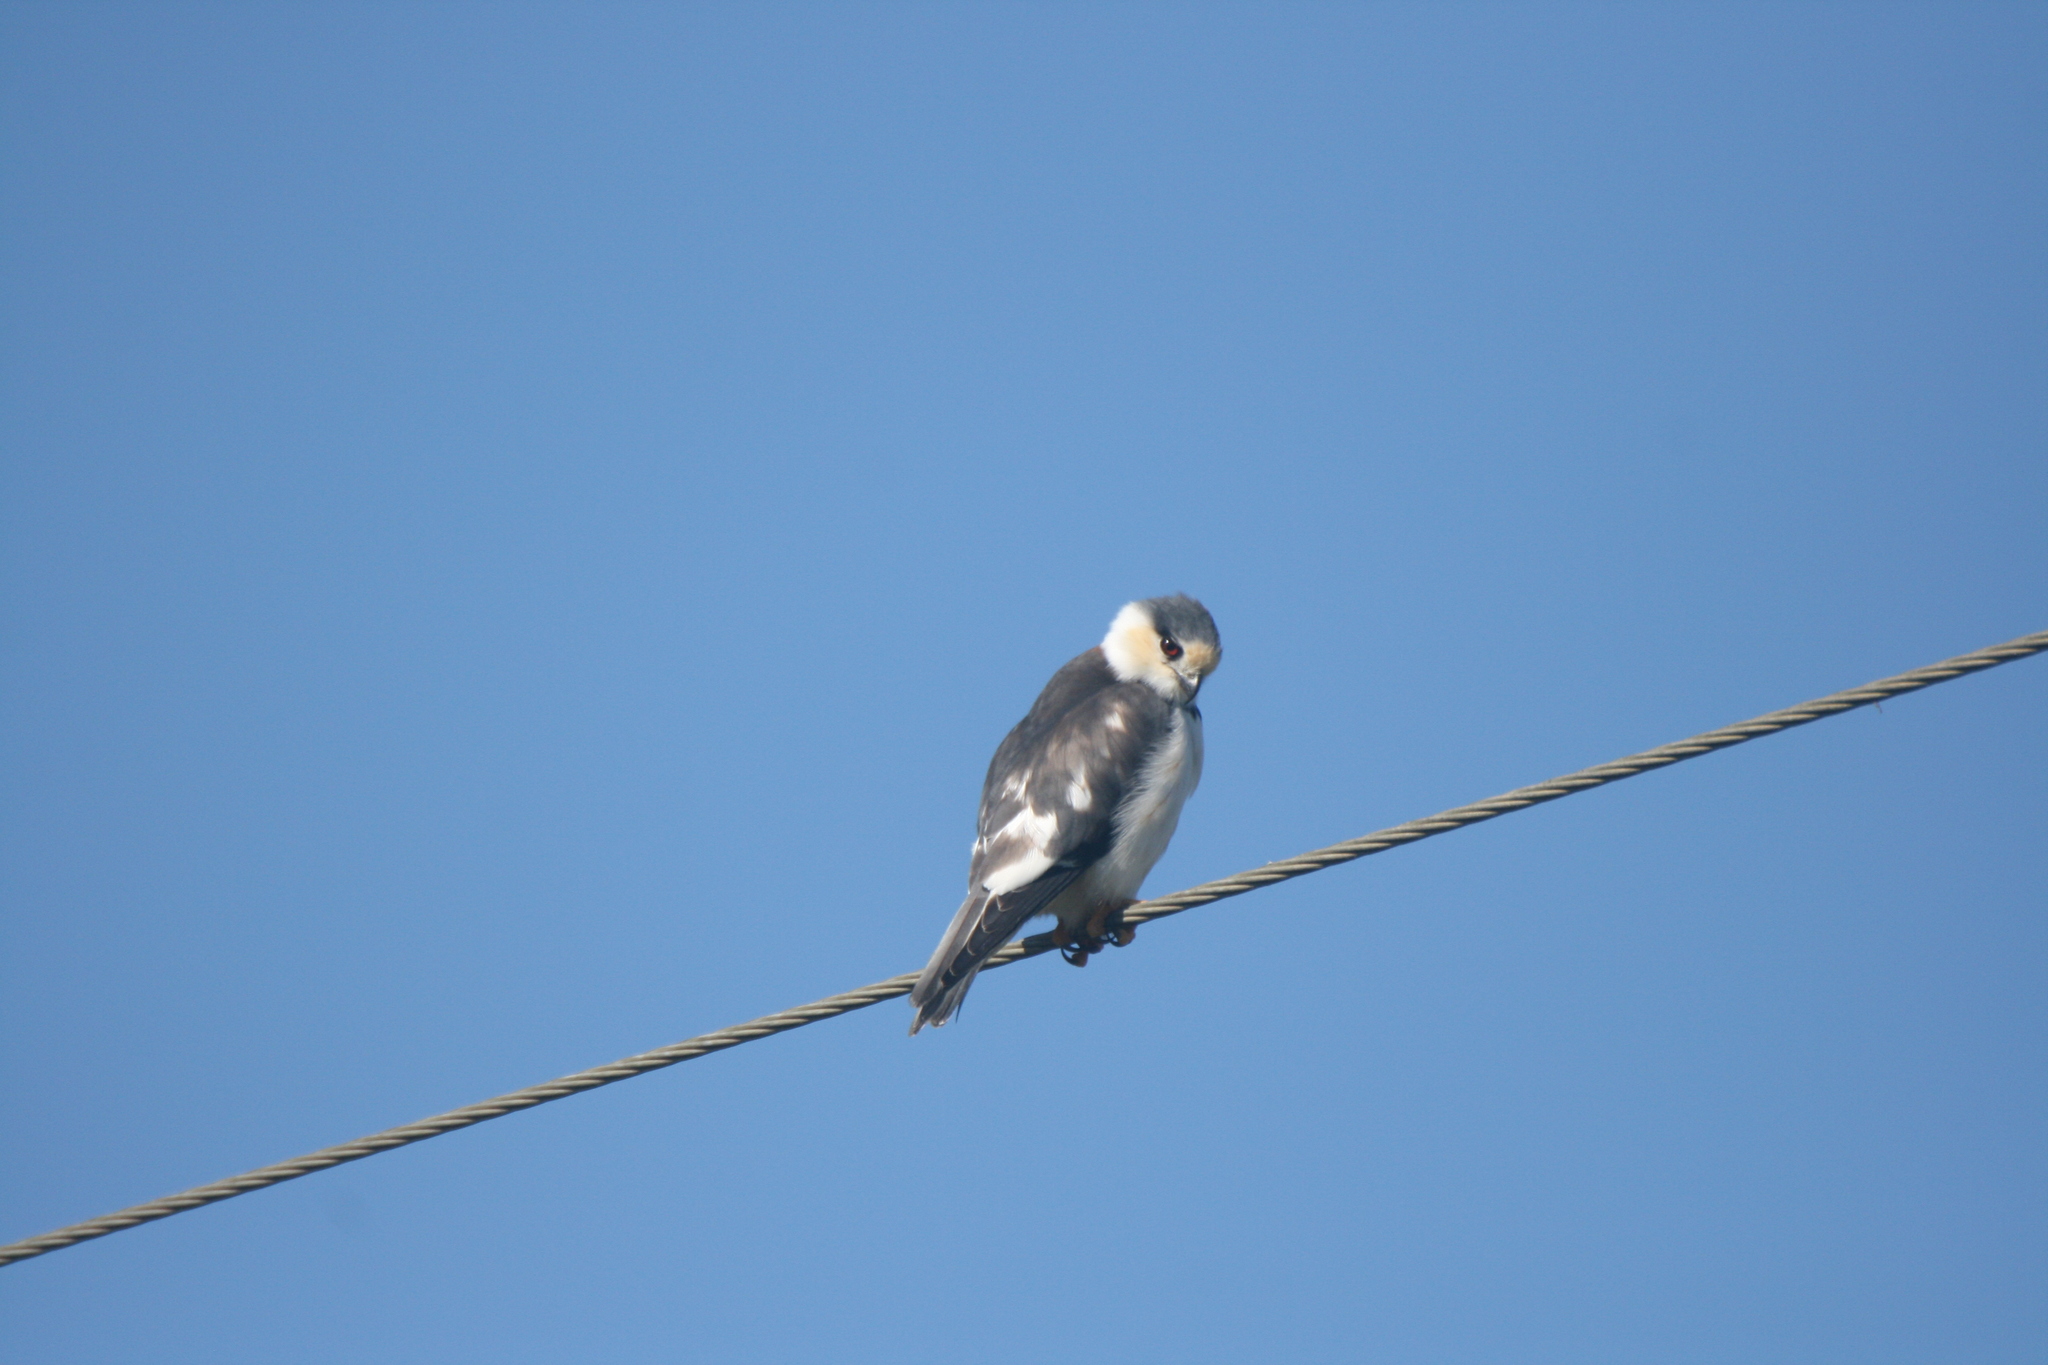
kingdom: Animalia
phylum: Chordata
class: Aves
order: Accipitriformes
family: Accipitridae
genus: Gampsonyx
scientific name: Gampsonyx swainsonii
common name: Pearl kite
